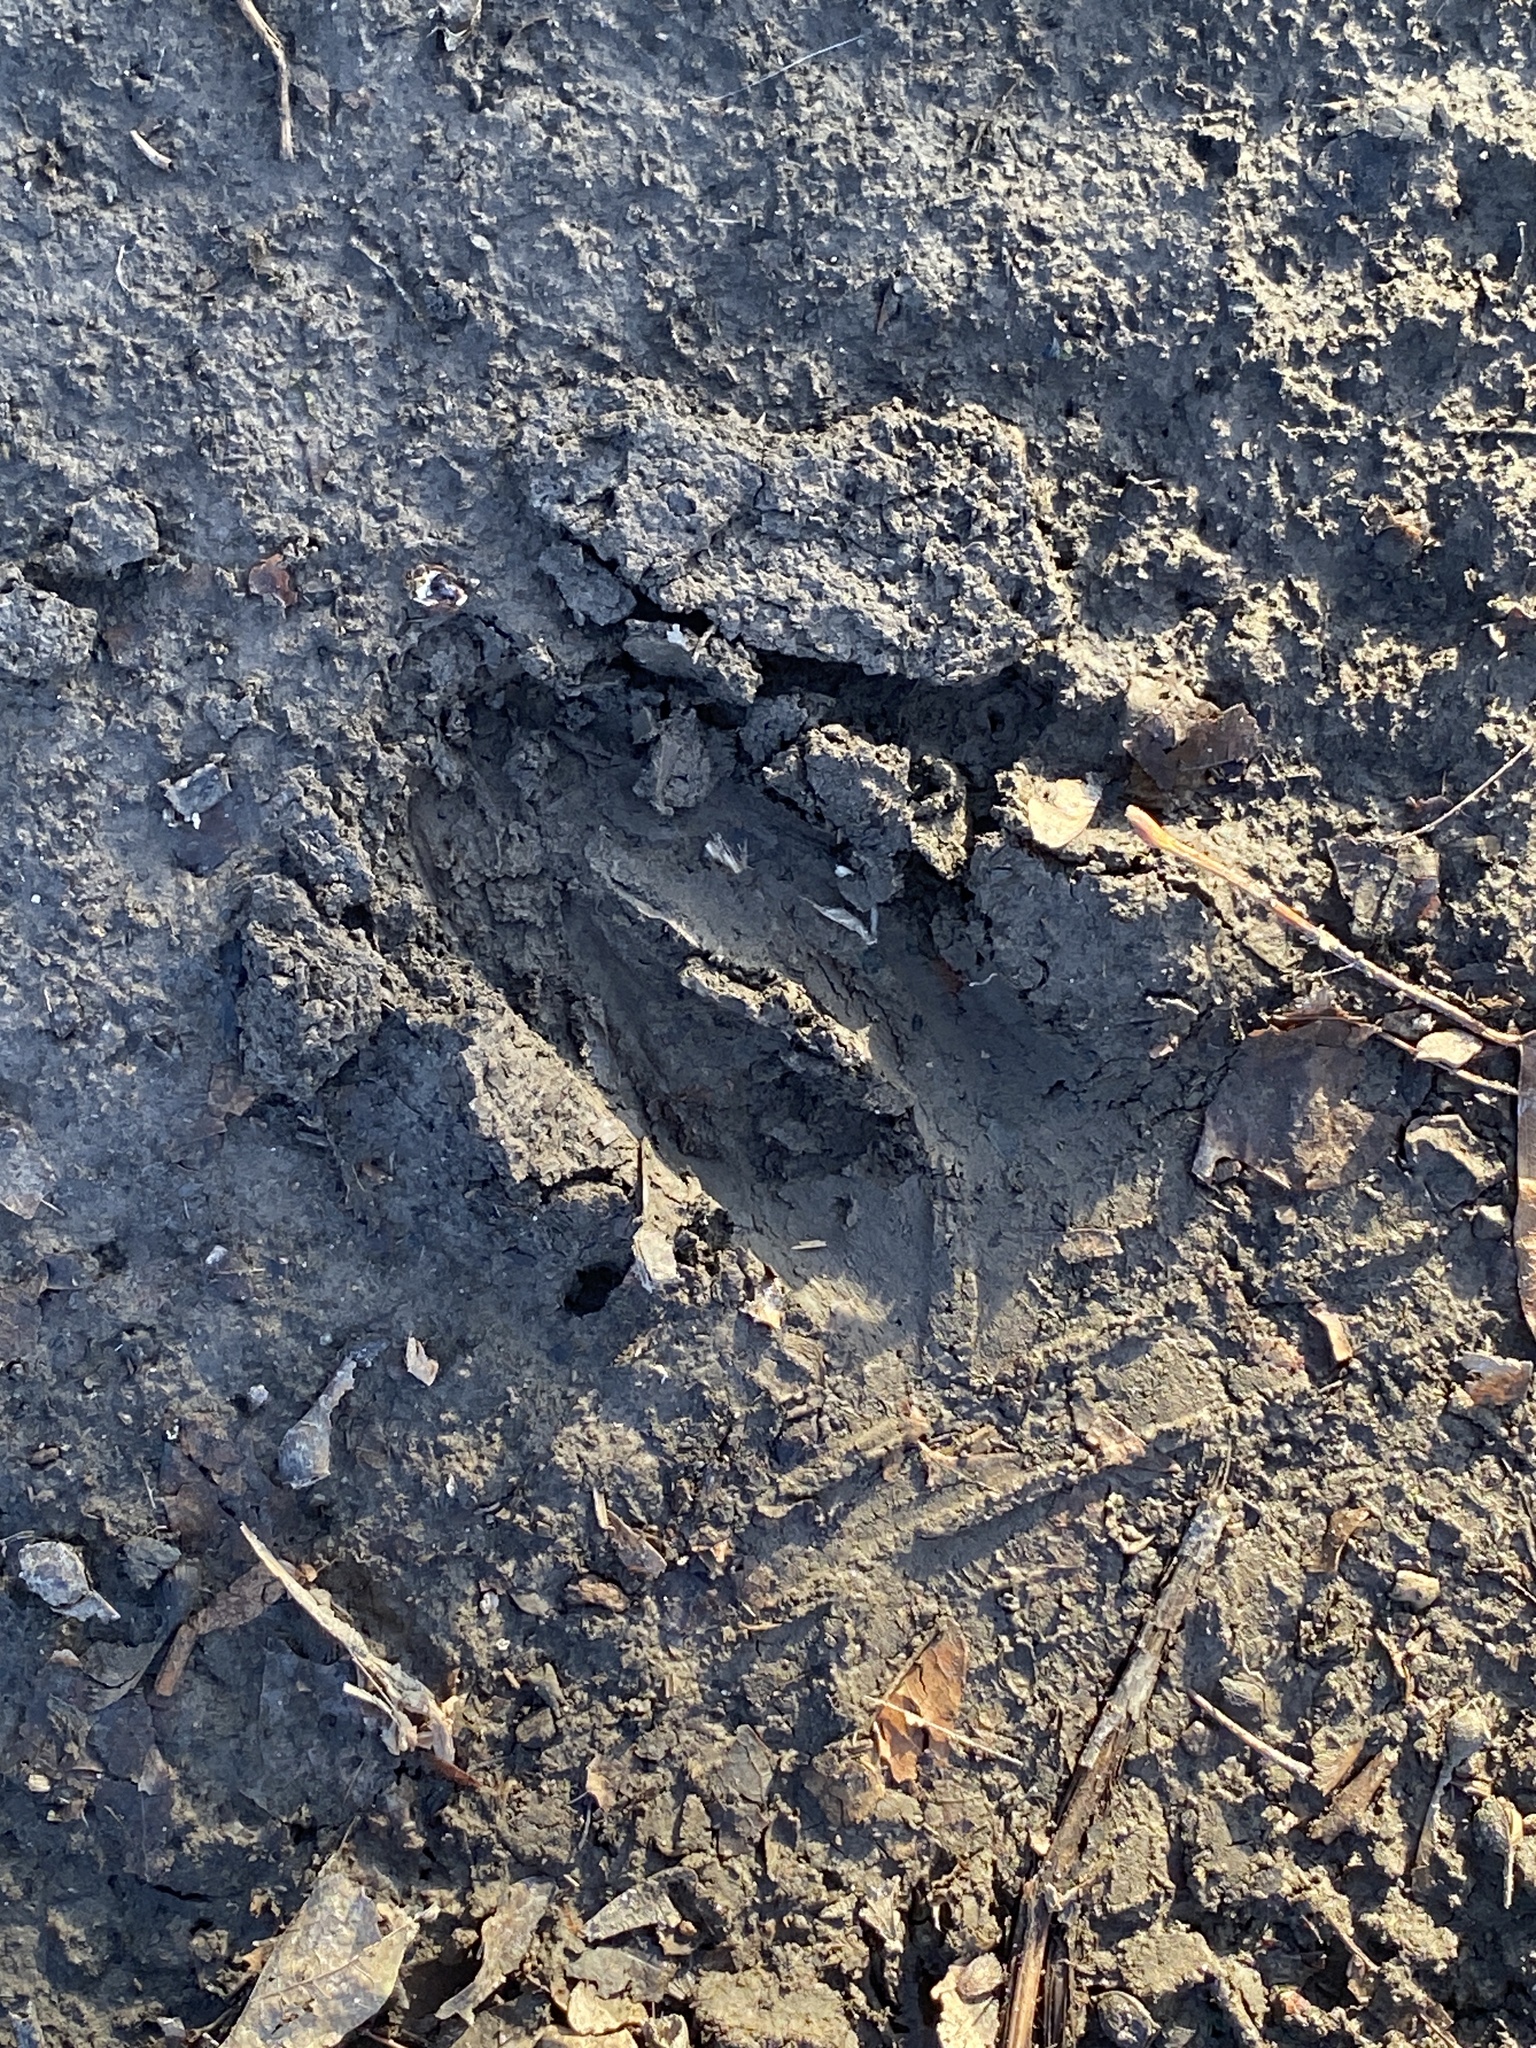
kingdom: Animalia
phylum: Chordata
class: Mammalia
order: Artiodactyla
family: Cervidae
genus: Odocoileus
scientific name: Odocoileus virginianus
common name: White-tailed deer
